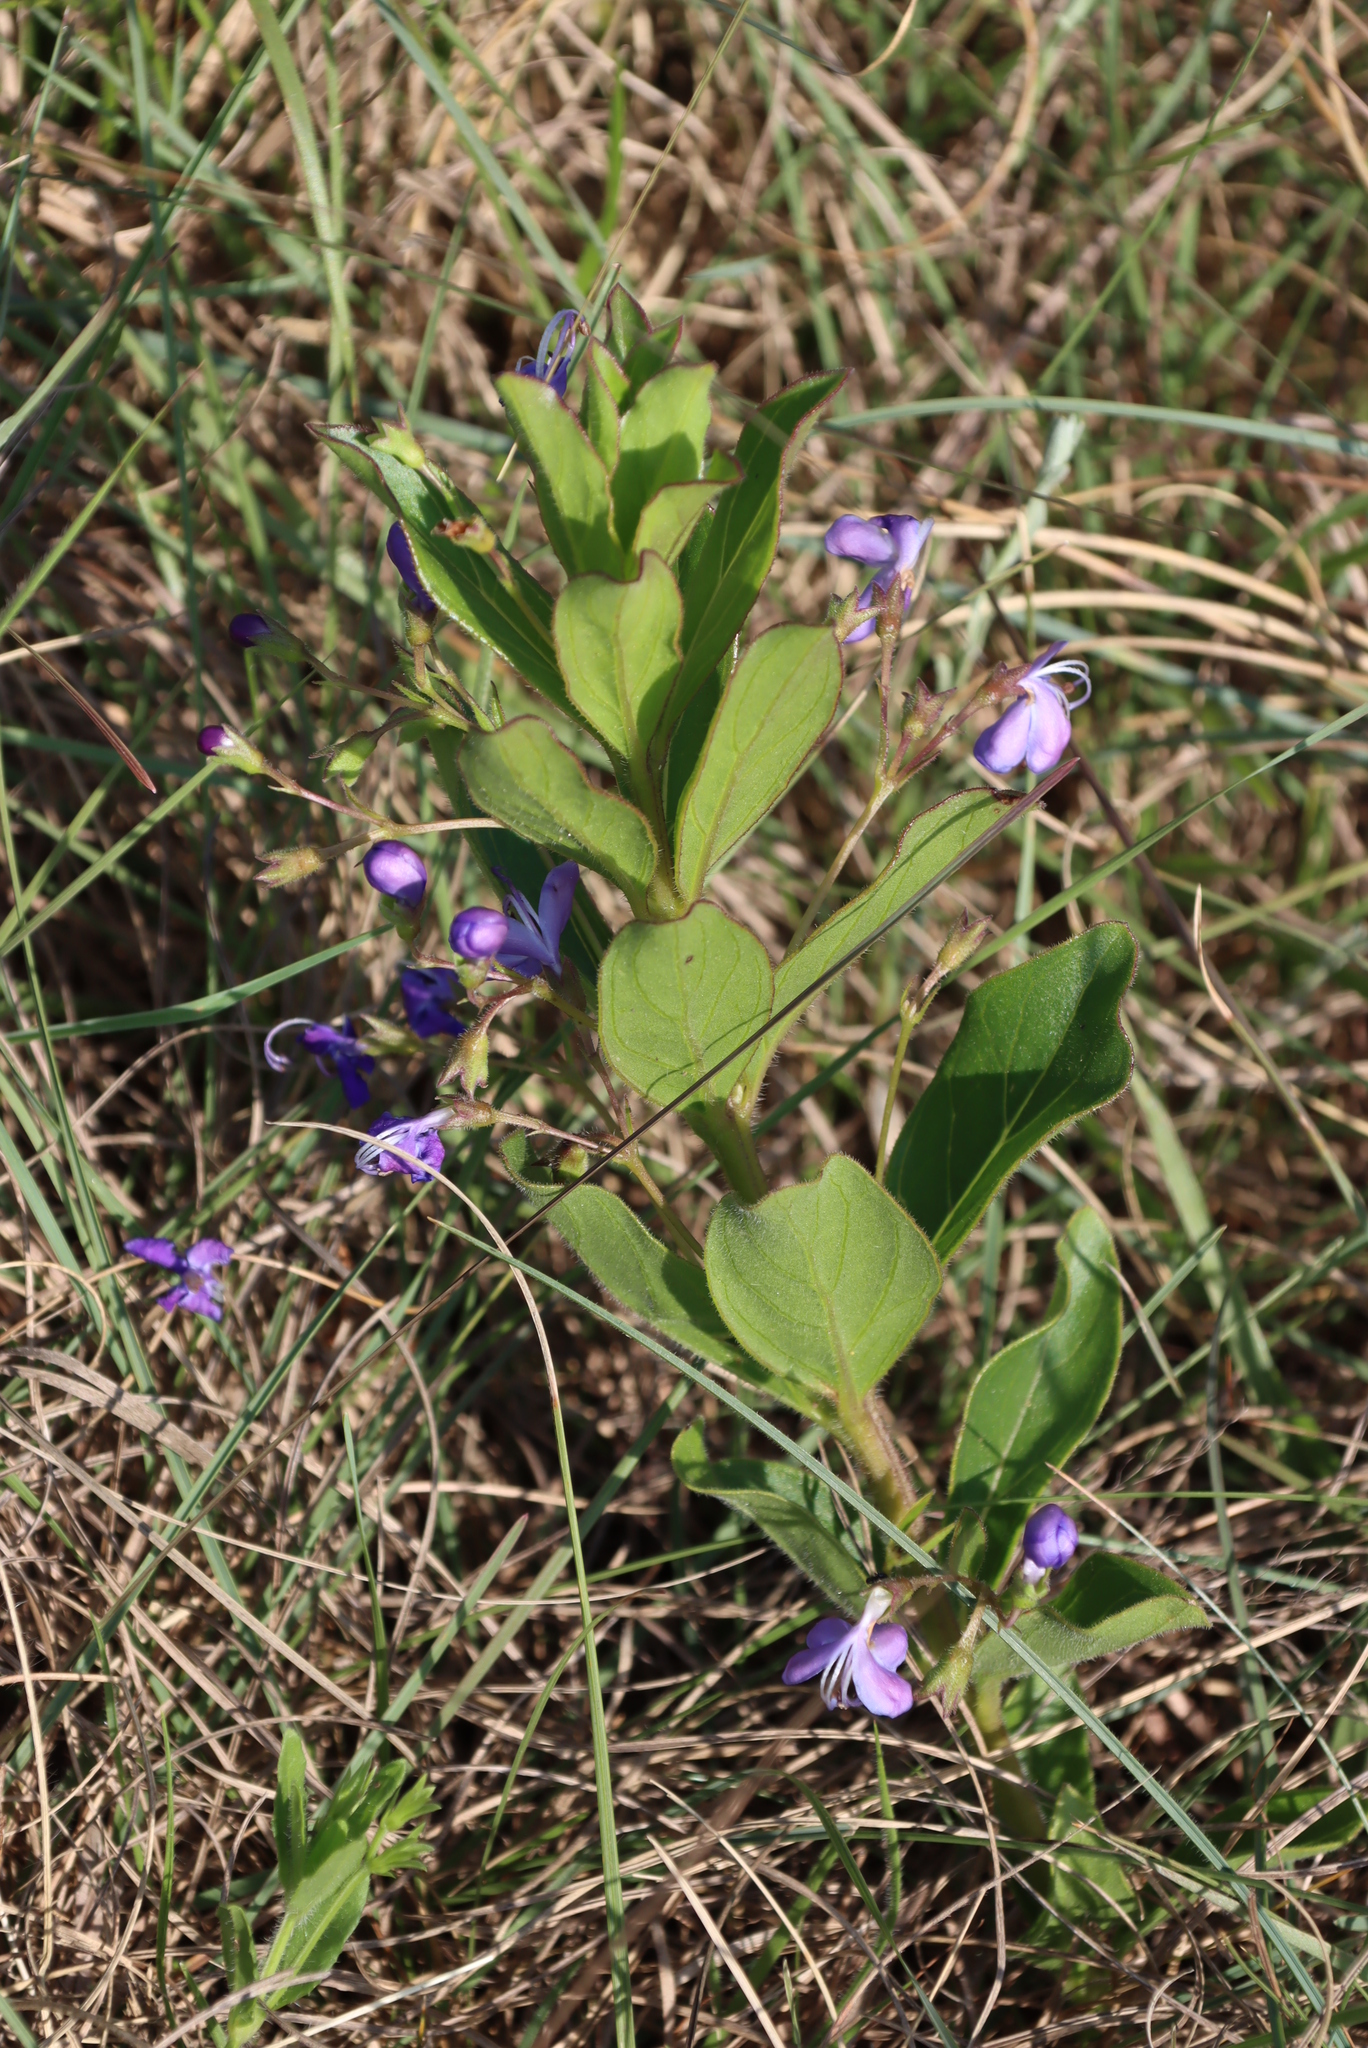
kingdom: Plantae
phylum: Tracheophyta
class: Magnoliopsida
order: Lamiales
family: Lamiaceae
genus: Rotheca
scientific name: Rotheca hirsuta
